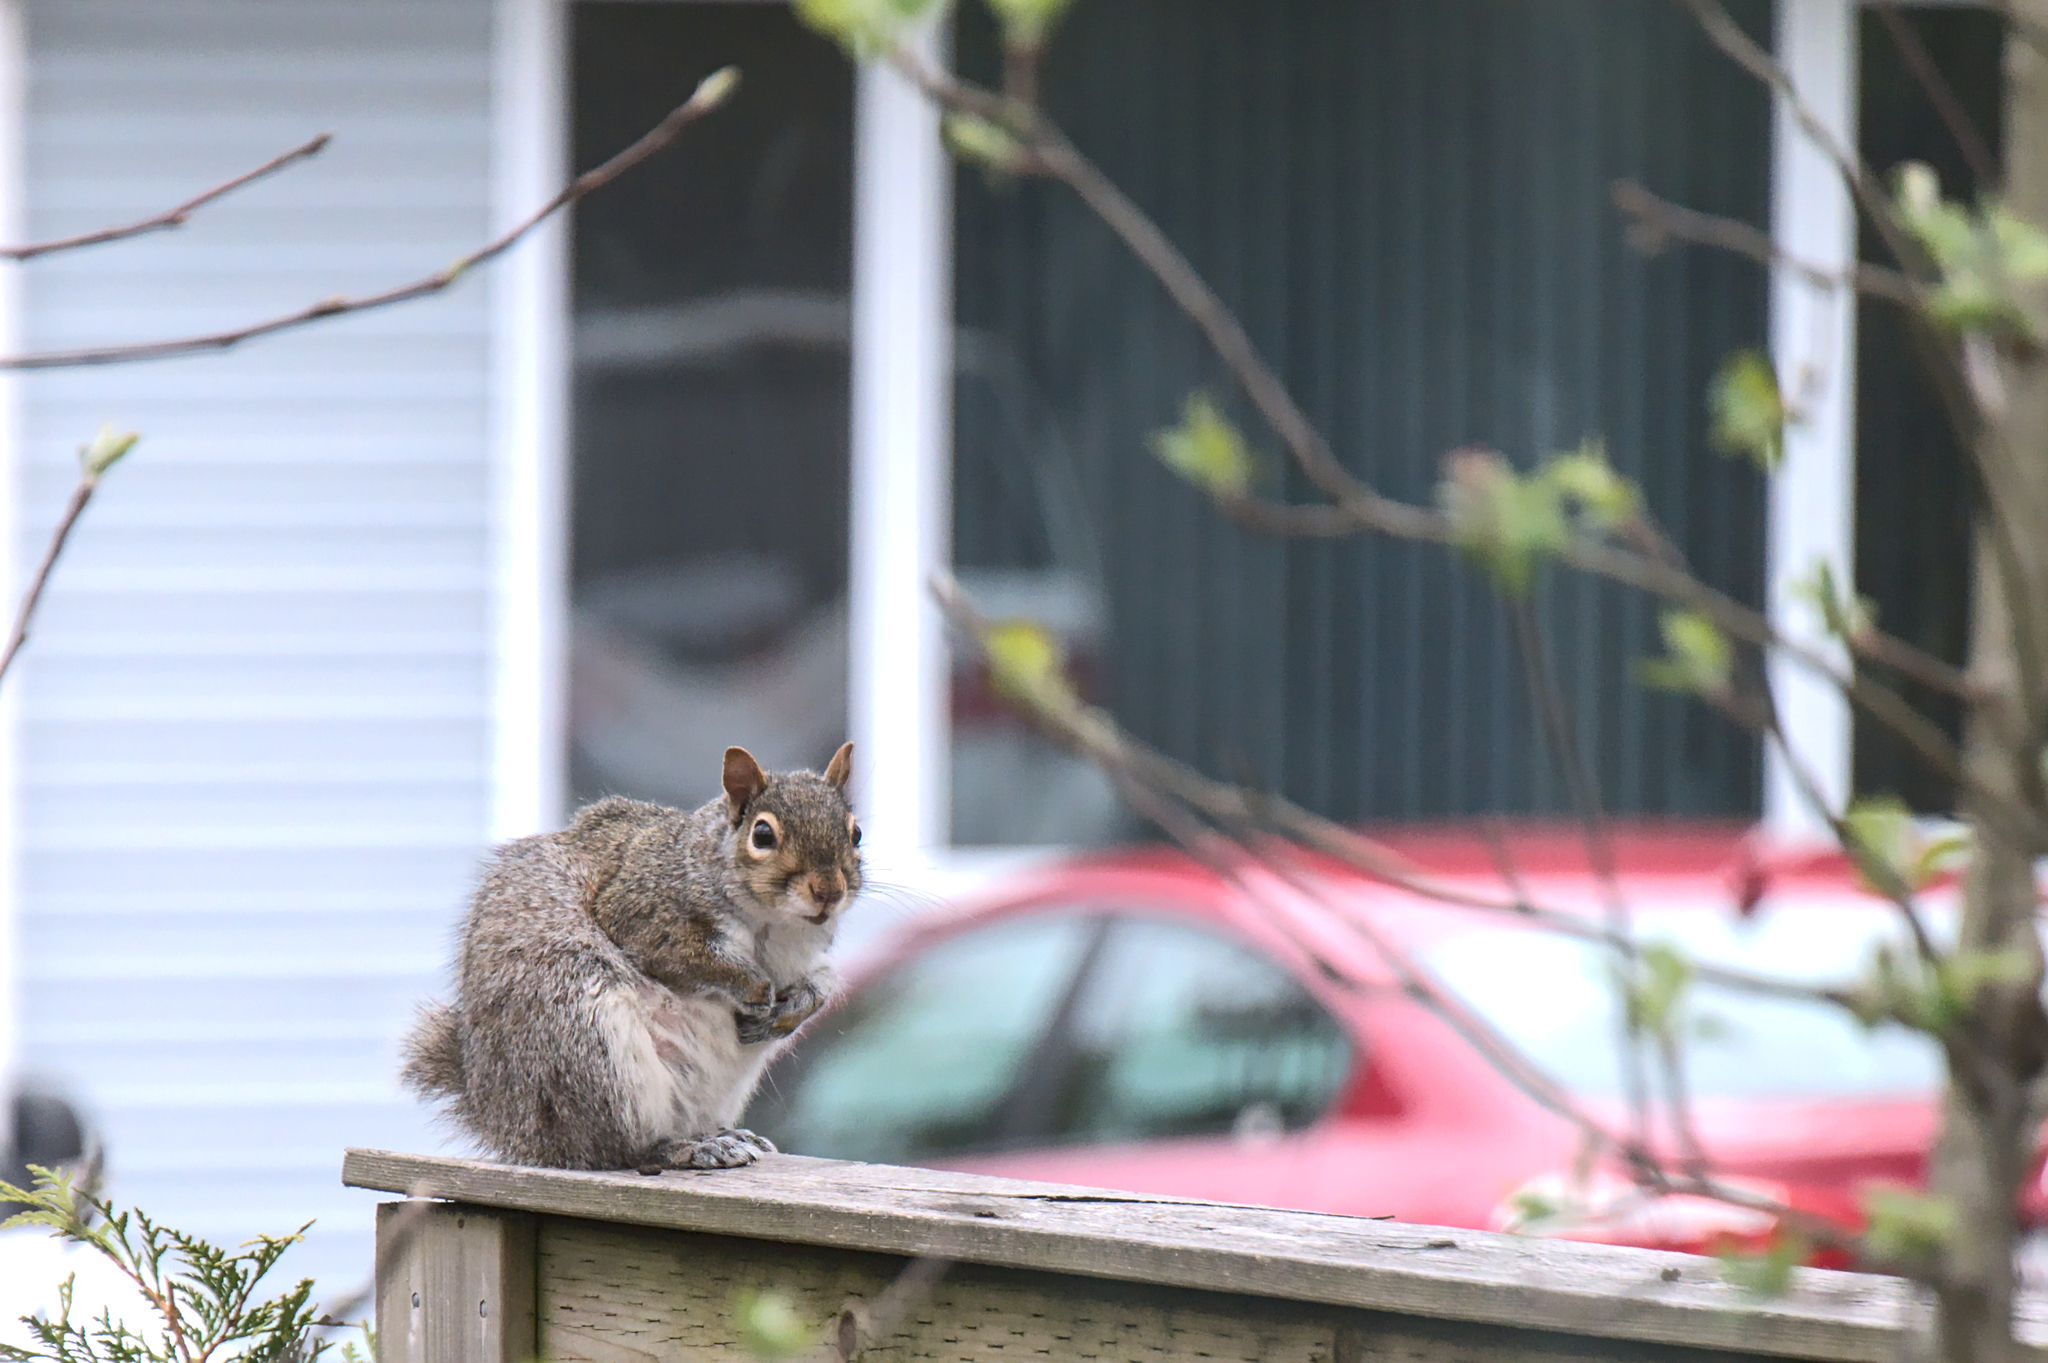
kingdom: Animalia
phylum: Chordata
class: Mammalia
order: Rodentia
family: Sciuridae
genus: Sciurus
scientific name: Sciurus carolinensis
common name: Eastern gray squirrel
